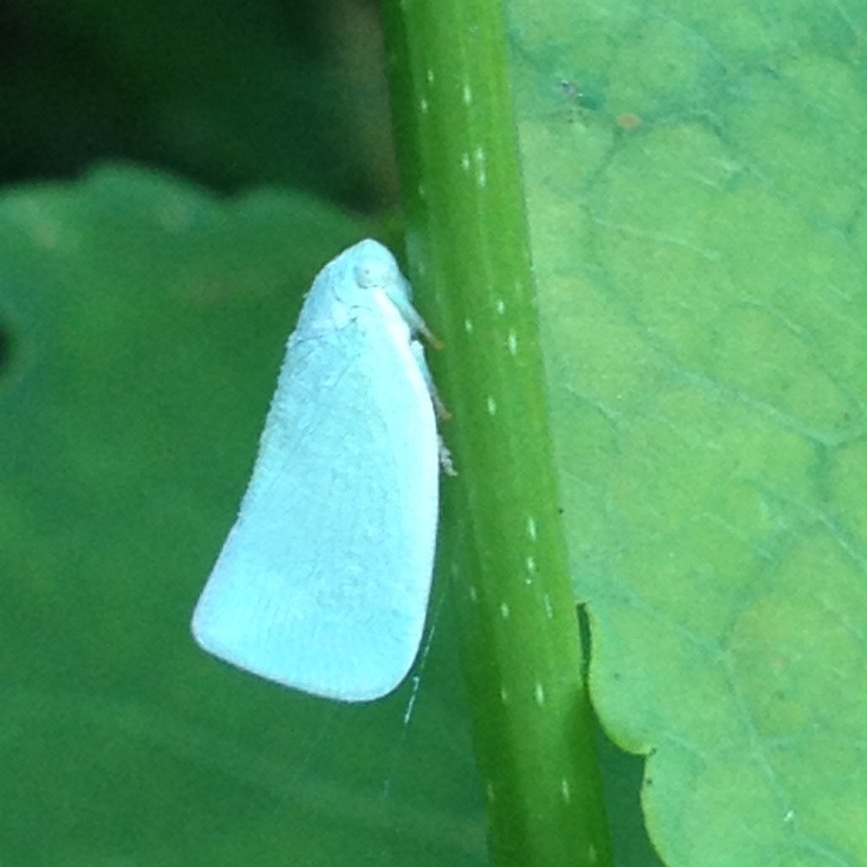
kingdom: Animalia
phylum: Arthropoda
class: Insecta
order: Hemiptera
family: Flatidae
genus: Flatormenis
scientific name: Flatormenis proxima
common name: Northern flatid planthopper
